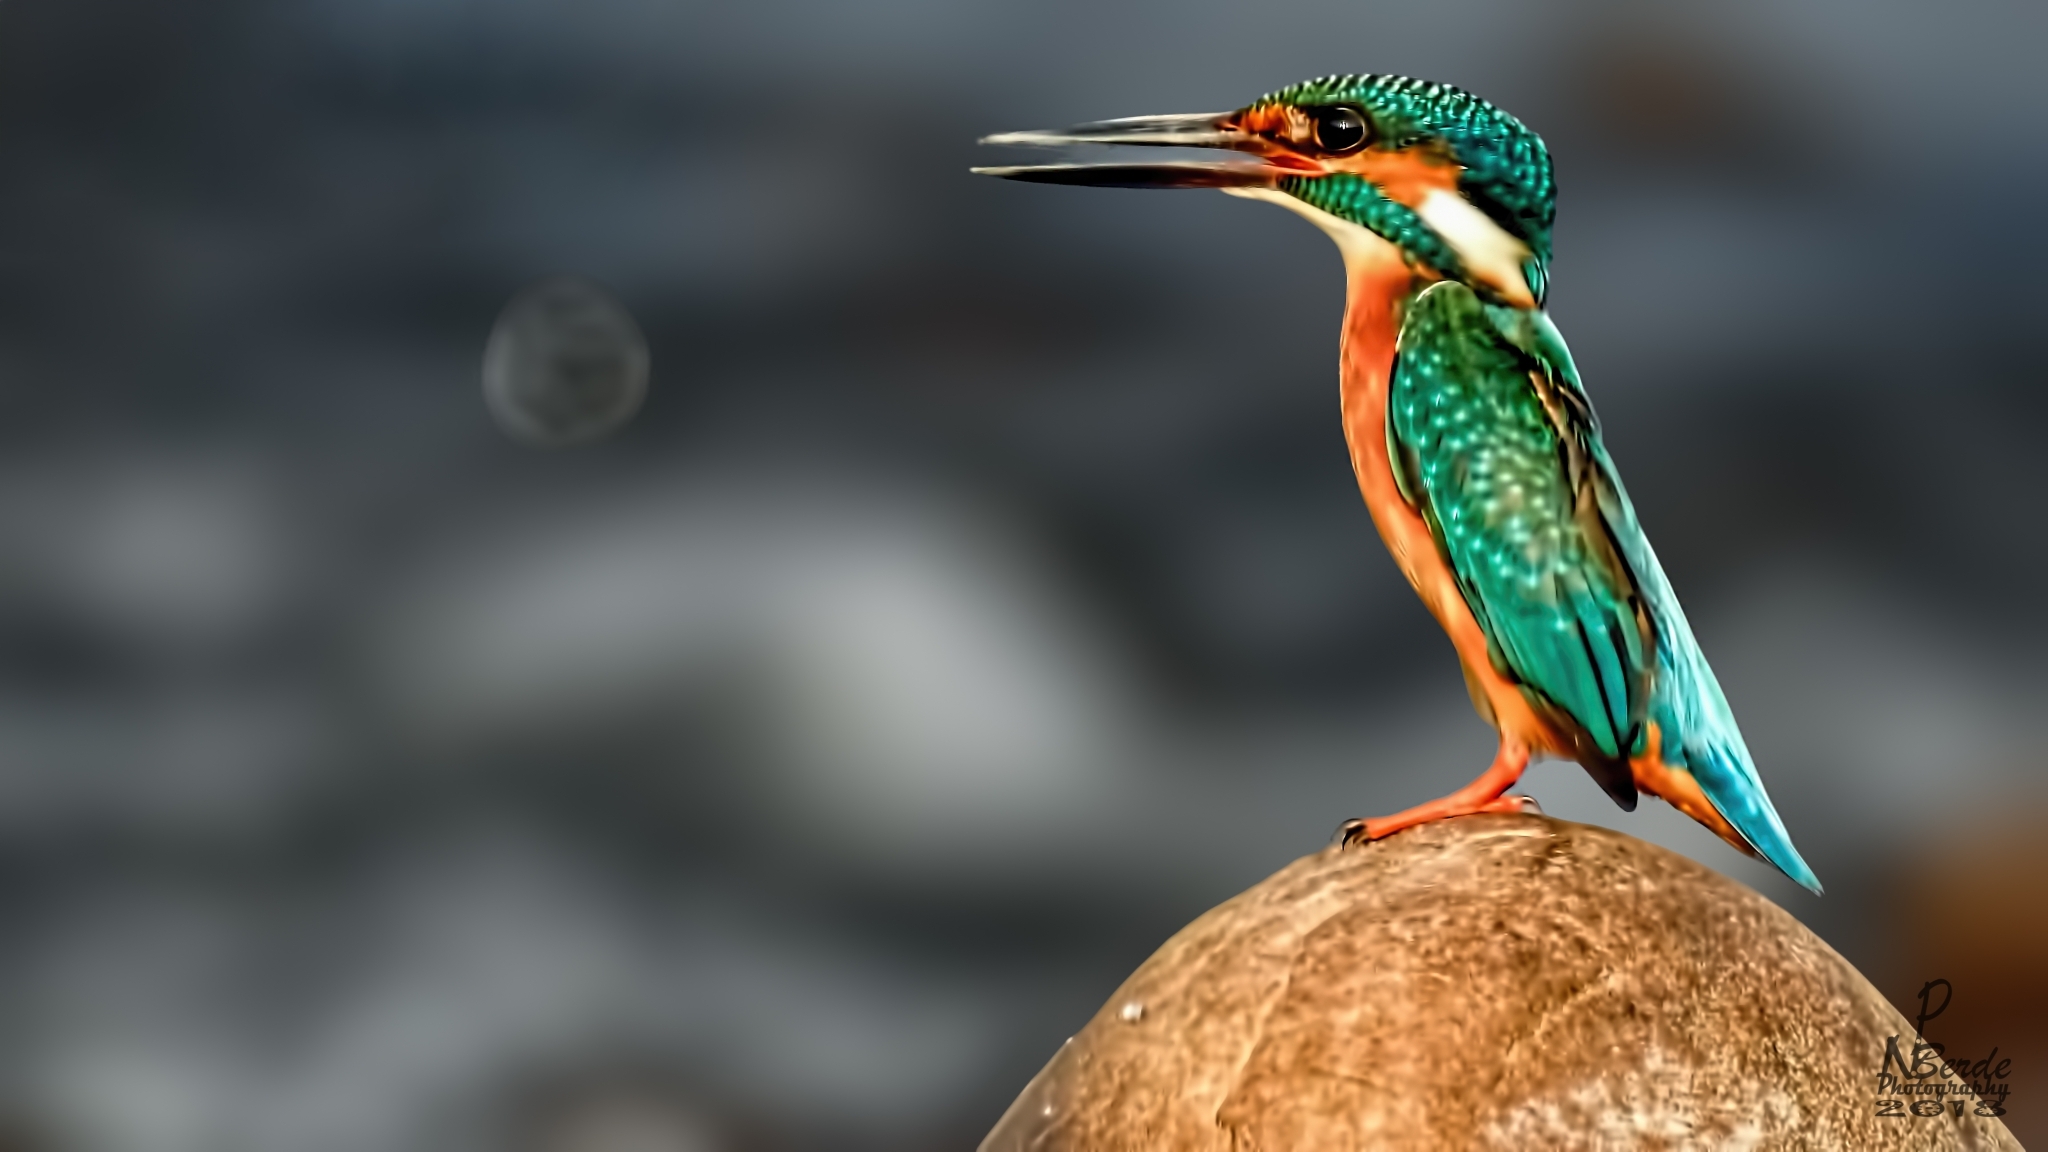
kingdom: Animalia
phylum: Chordata
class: Aves
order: Coraciiformes
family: Alcedinidae
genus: Alcedo
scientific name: Alcedo atthis
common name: Common kingfisher
